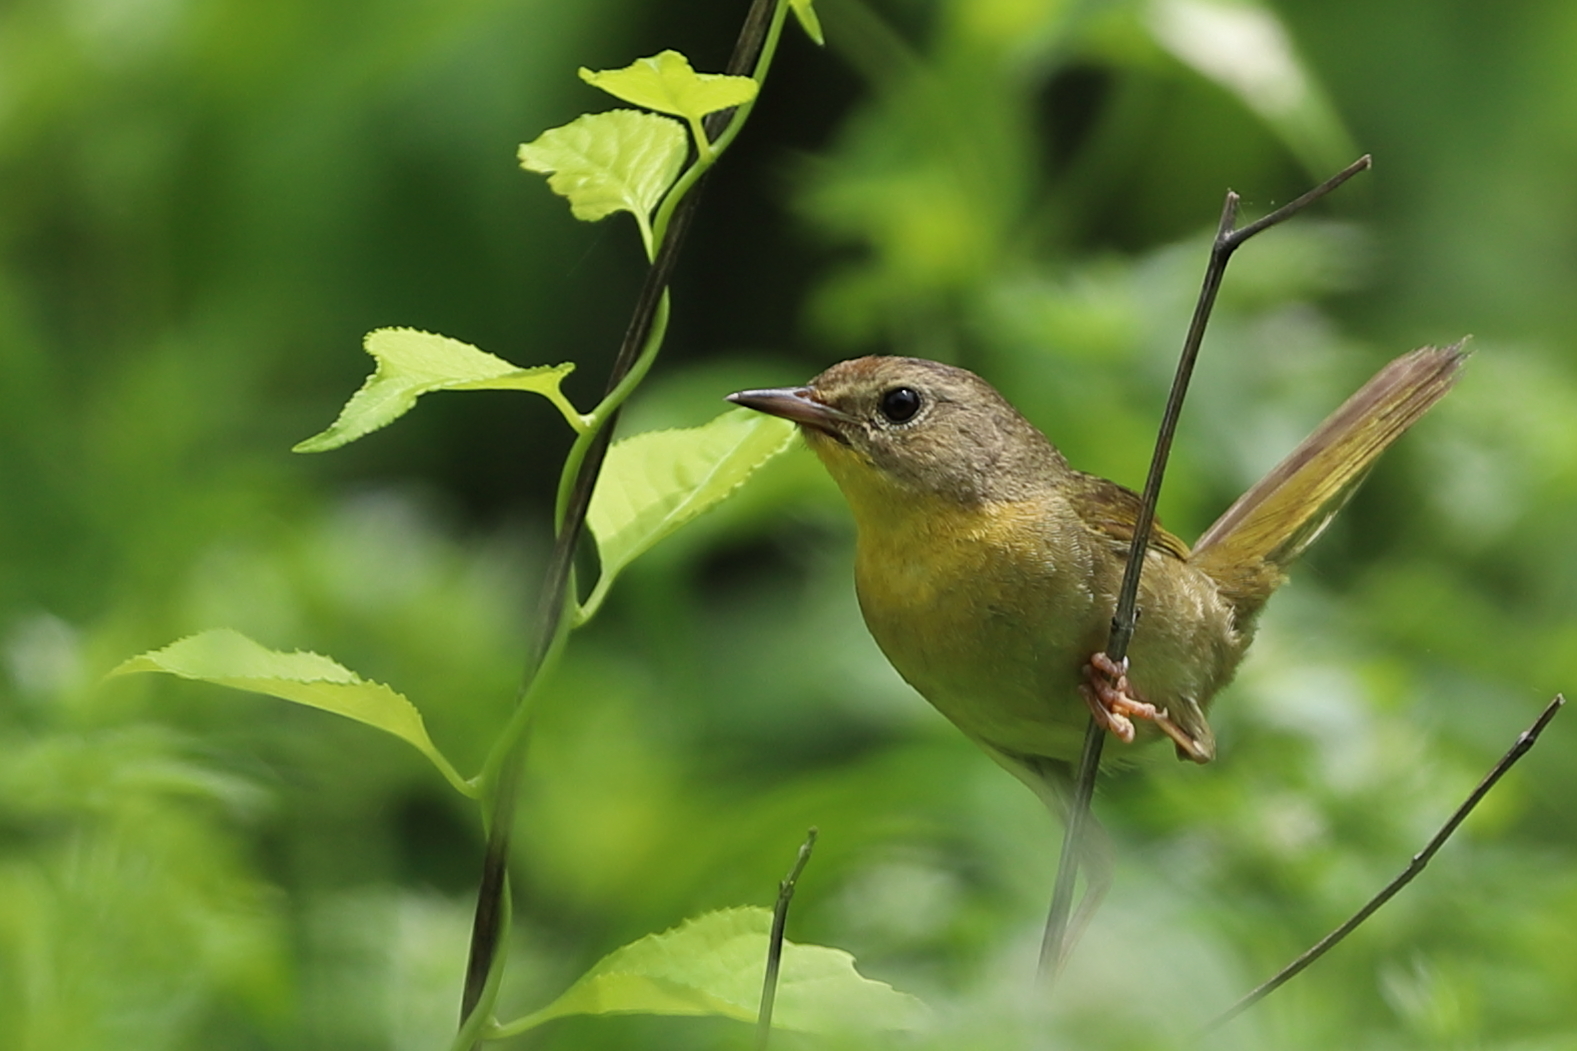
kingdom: Animalia
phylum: Chordata
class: Aves
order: Passeriformes
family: Parulidae
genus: Geothlypis
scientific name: Geothlypis trichas
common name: Common yellowthroat
